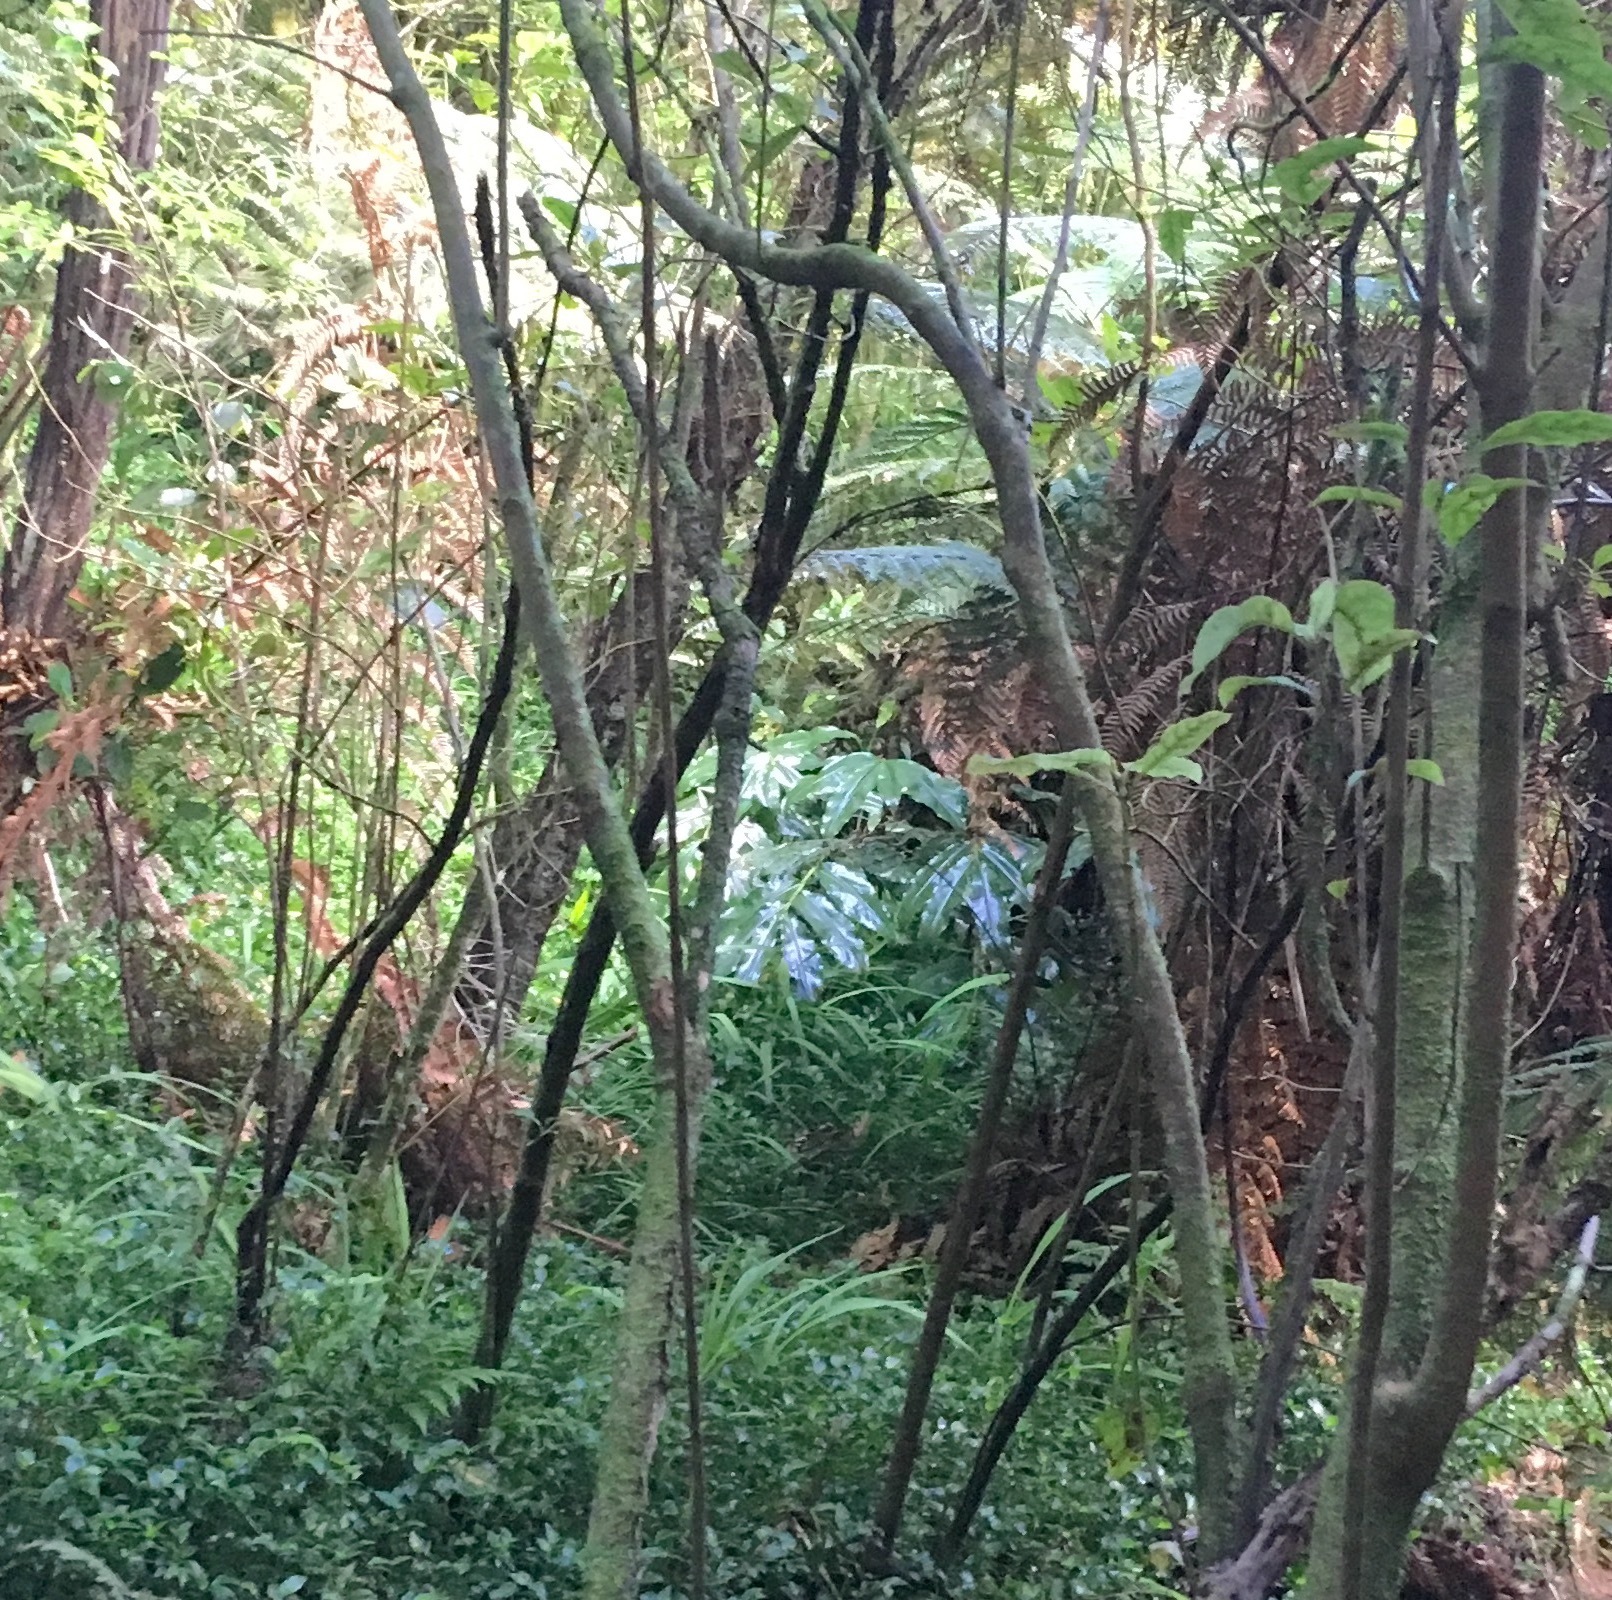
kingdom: Plantae
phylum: Tracheophyta
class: Liliopsida
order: Zingiberales
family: Zingiberaceae
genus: Hedychium
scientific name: Hedychium gardnerianum
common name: Himalayan ginger
